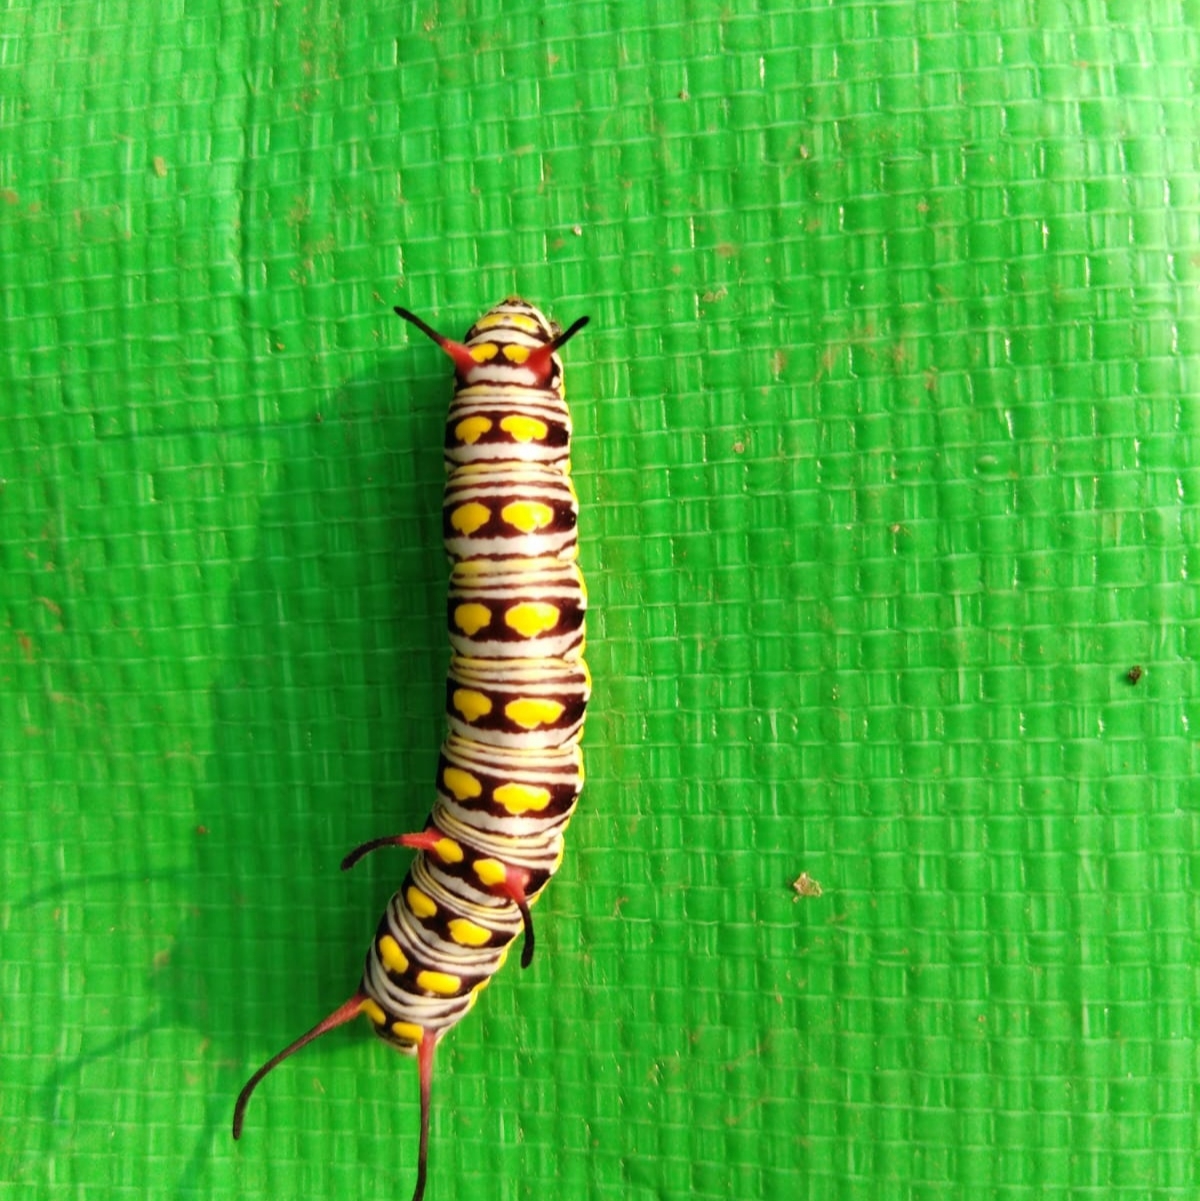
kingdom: Animalia
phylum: Arthropoda
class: Insecta
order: Lepidoptera
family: Nymphalidae
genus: Danaus
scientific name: Danaus chrysippus
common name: Plain tiger
